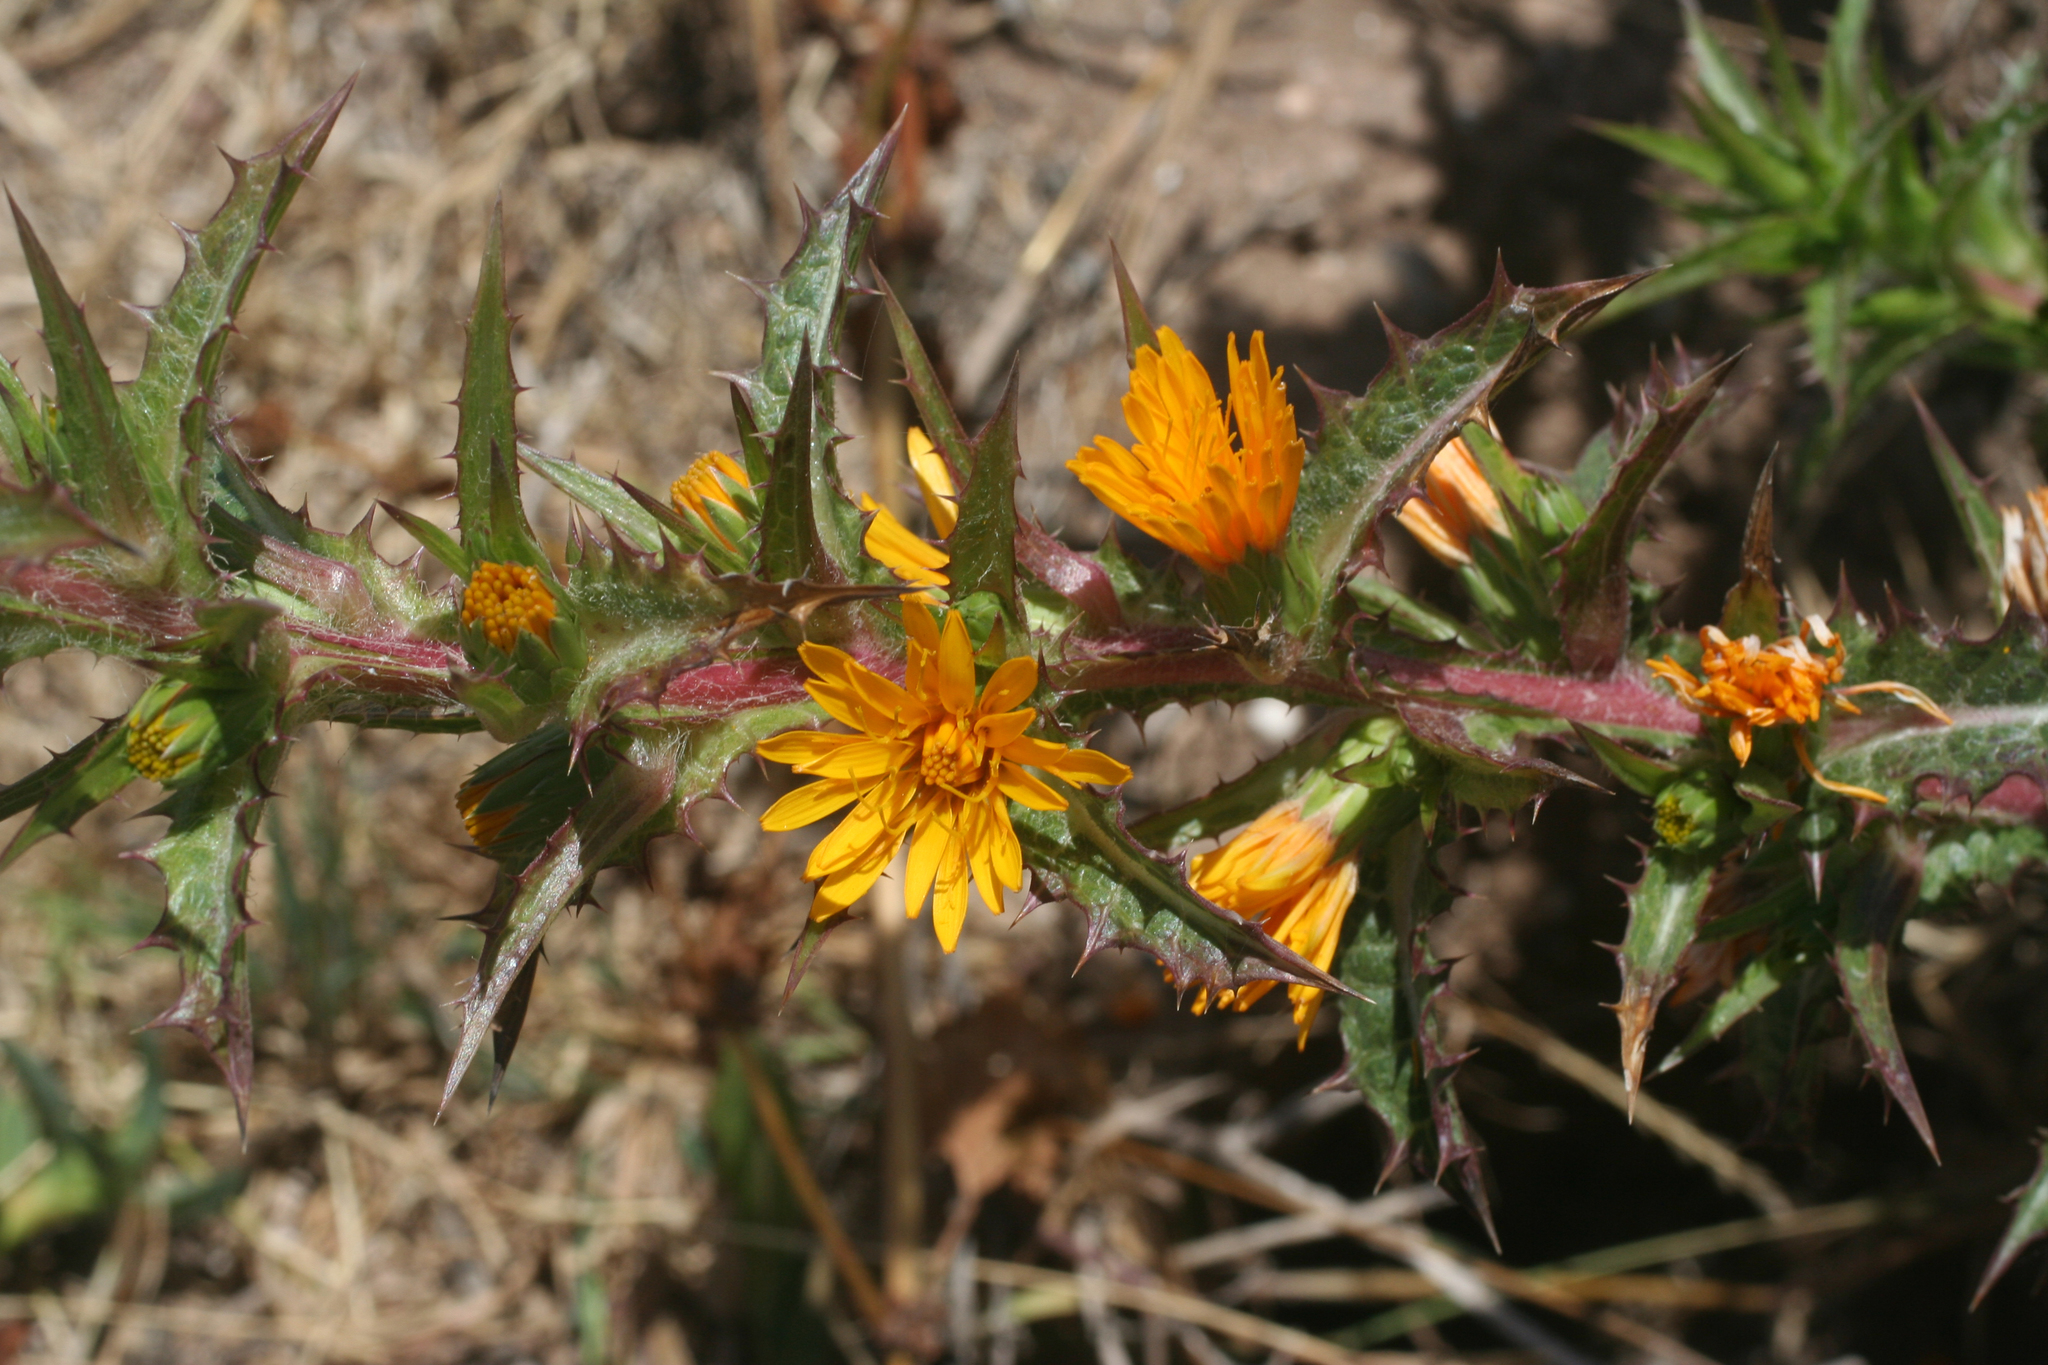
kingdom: Plantae
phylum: Tracheophyta
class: Magnoliopsida
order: Asterales
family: Asteraceae
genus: Scolymus
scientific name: Scolymus hispanicus
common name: Golden thistle
